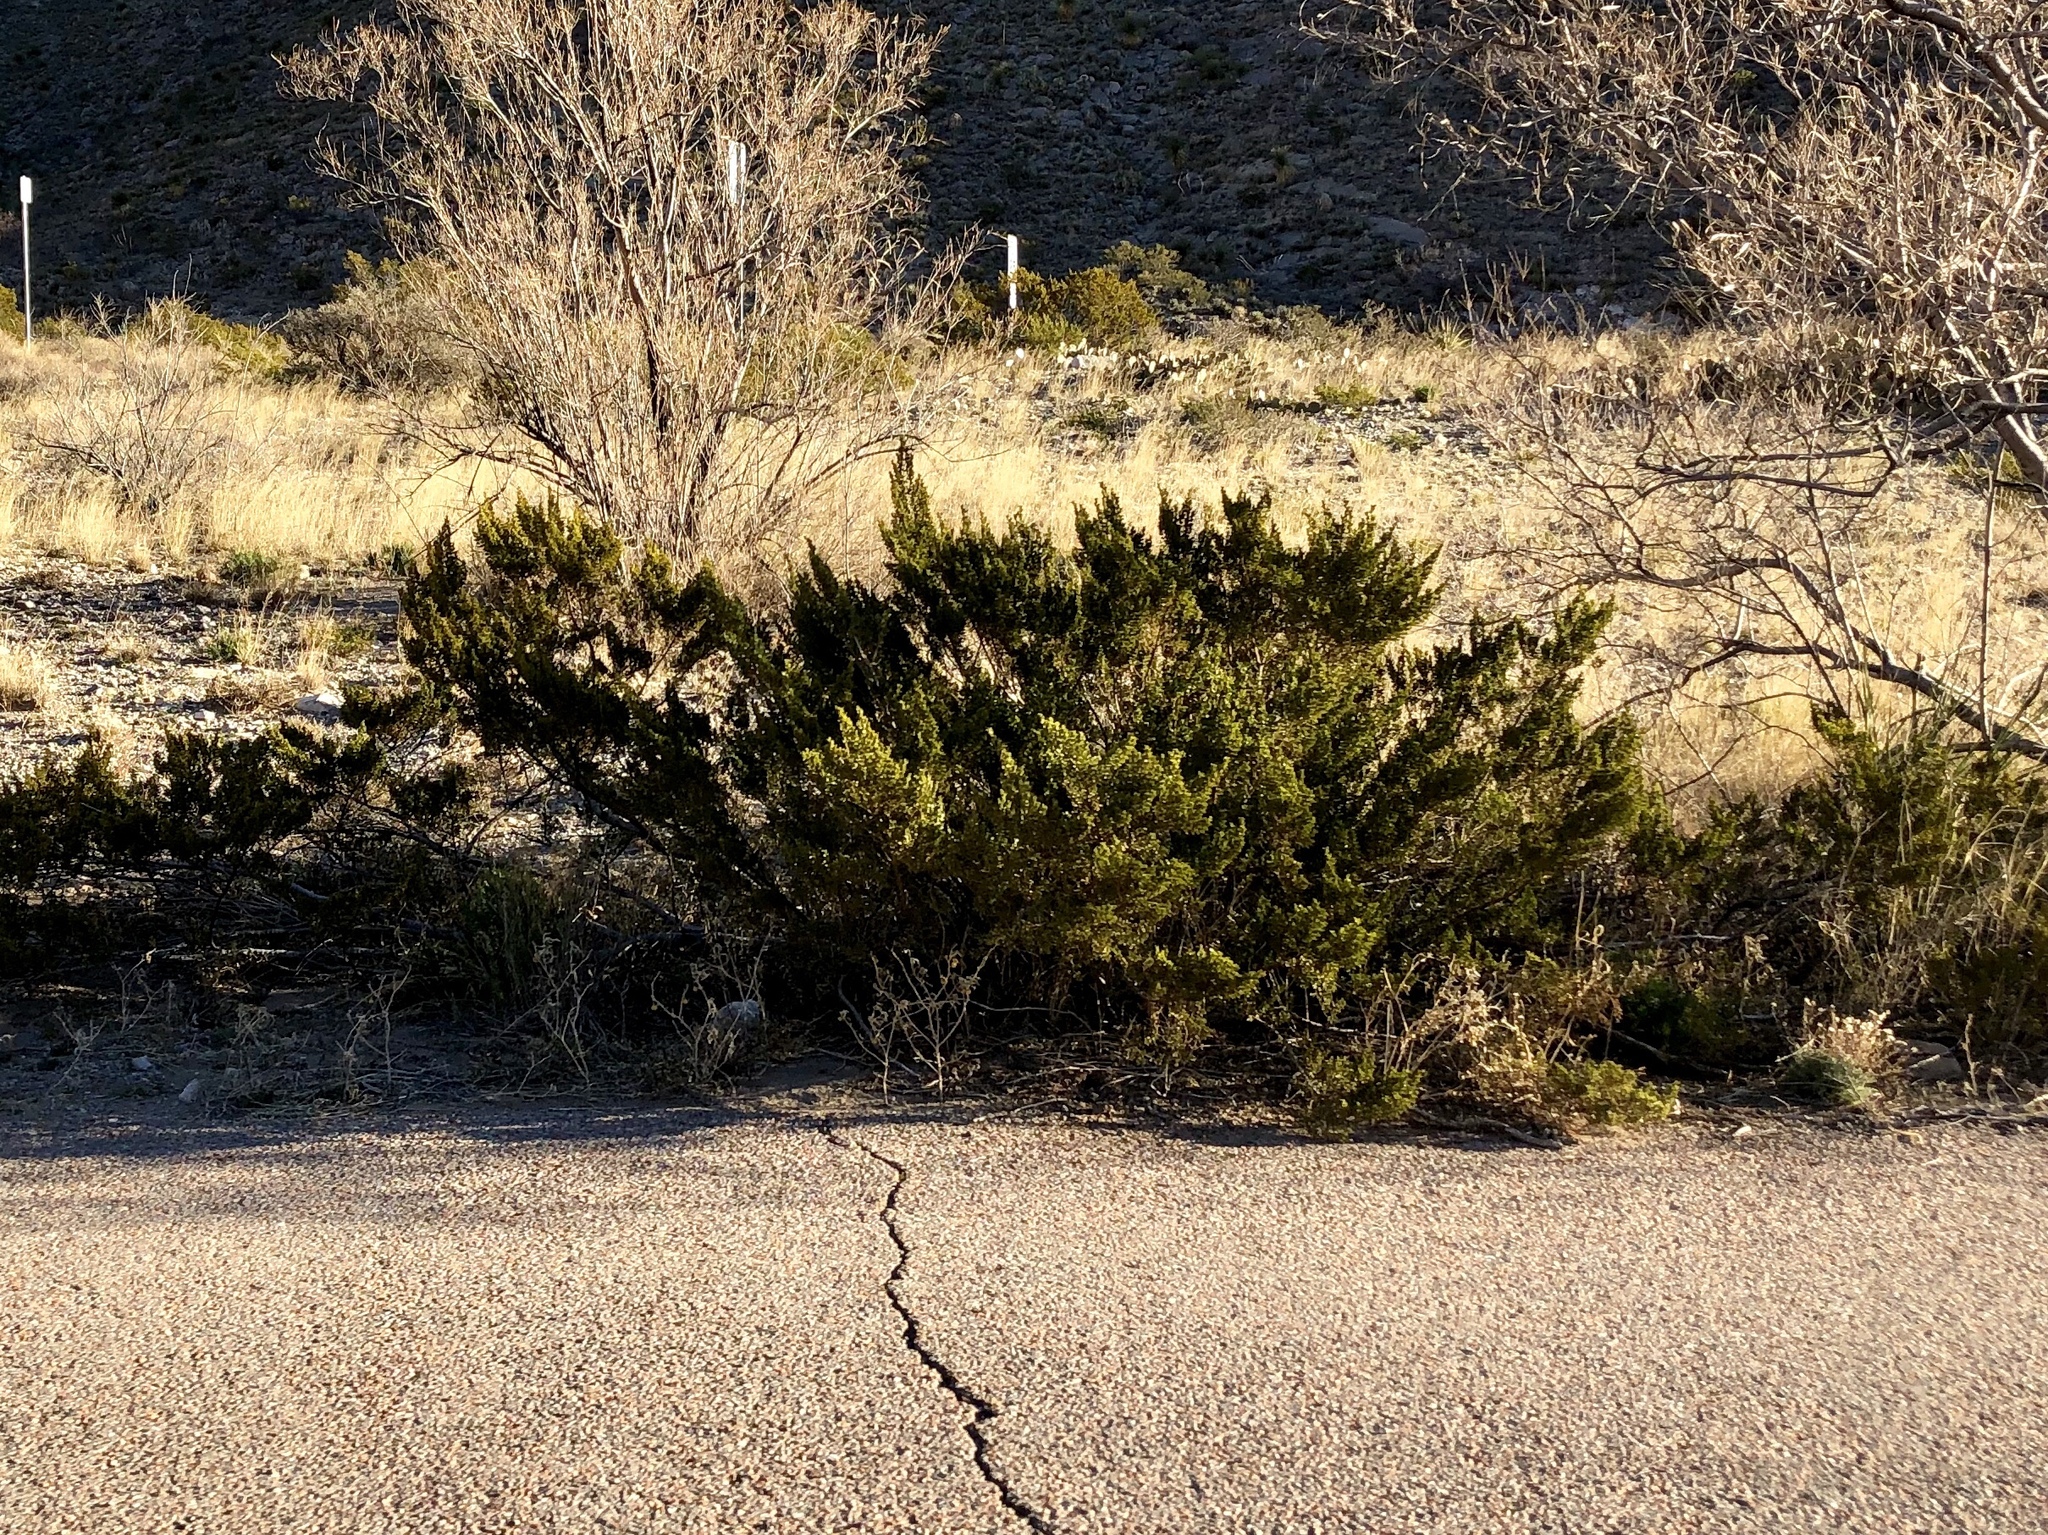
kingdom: Plantae
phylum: Tracheophyta
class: Magnoliopsida
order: Zygophyllales
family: Zygophyllaceae
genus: Larrea
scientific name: Larrea tridentata
